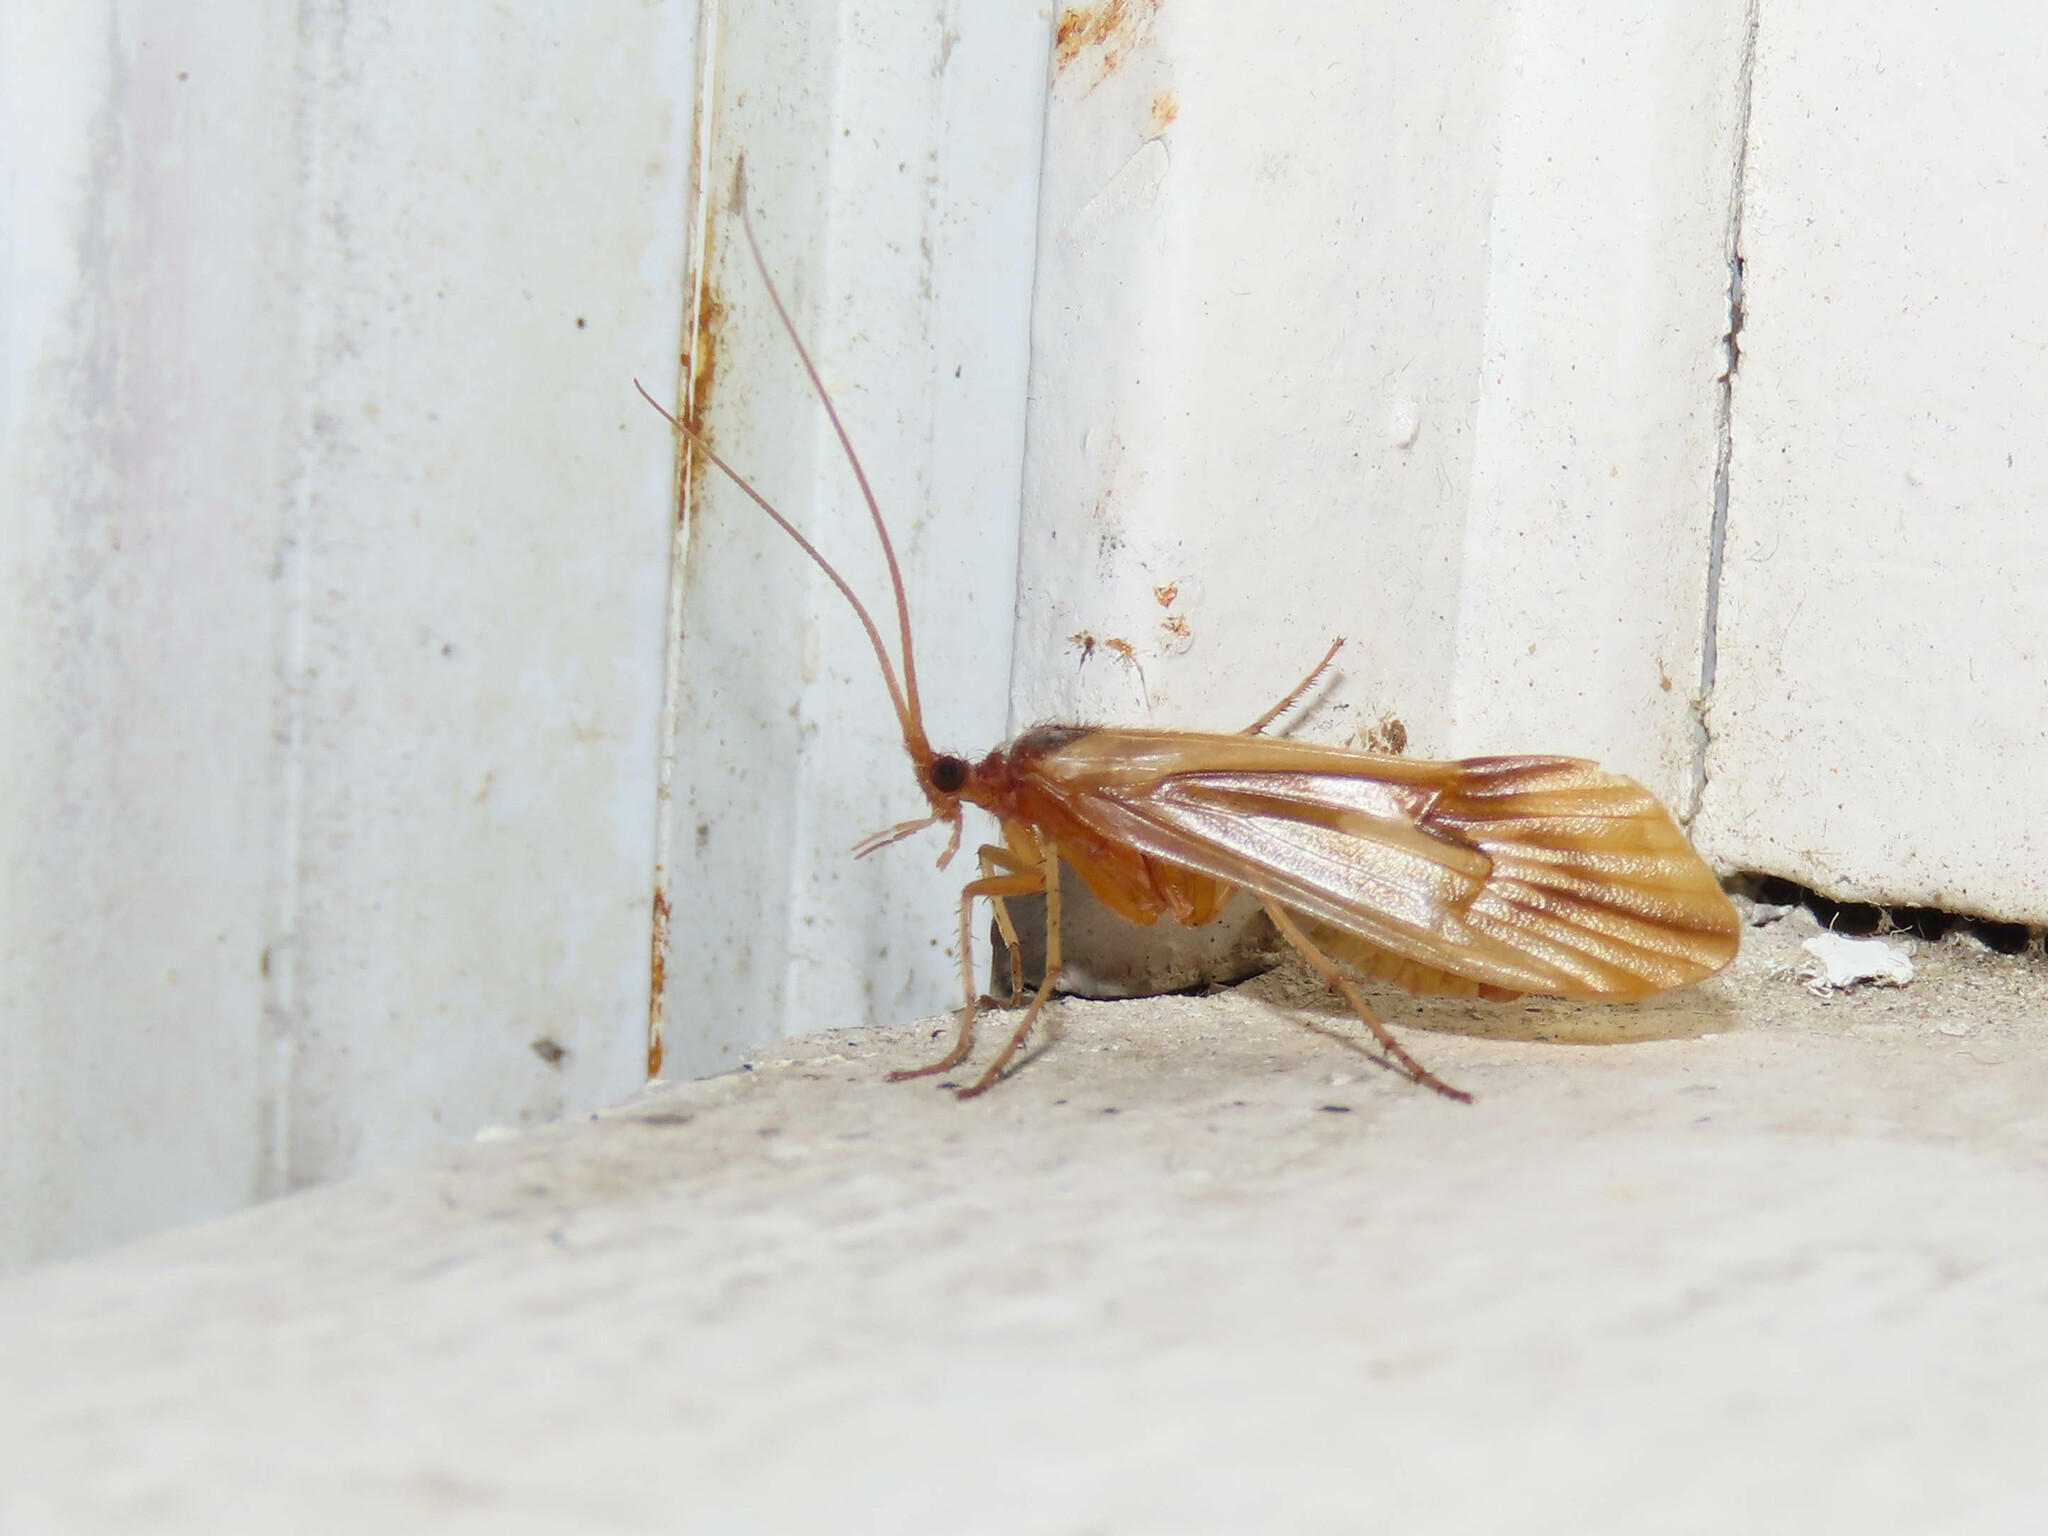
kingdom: Animalia
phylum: Arthropoda
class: Insecta
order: Trichoptera
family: Limnephilidae
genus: Platycentropus
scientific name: Platycentropus radiatus
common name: Chocolate-and-cream sedge
